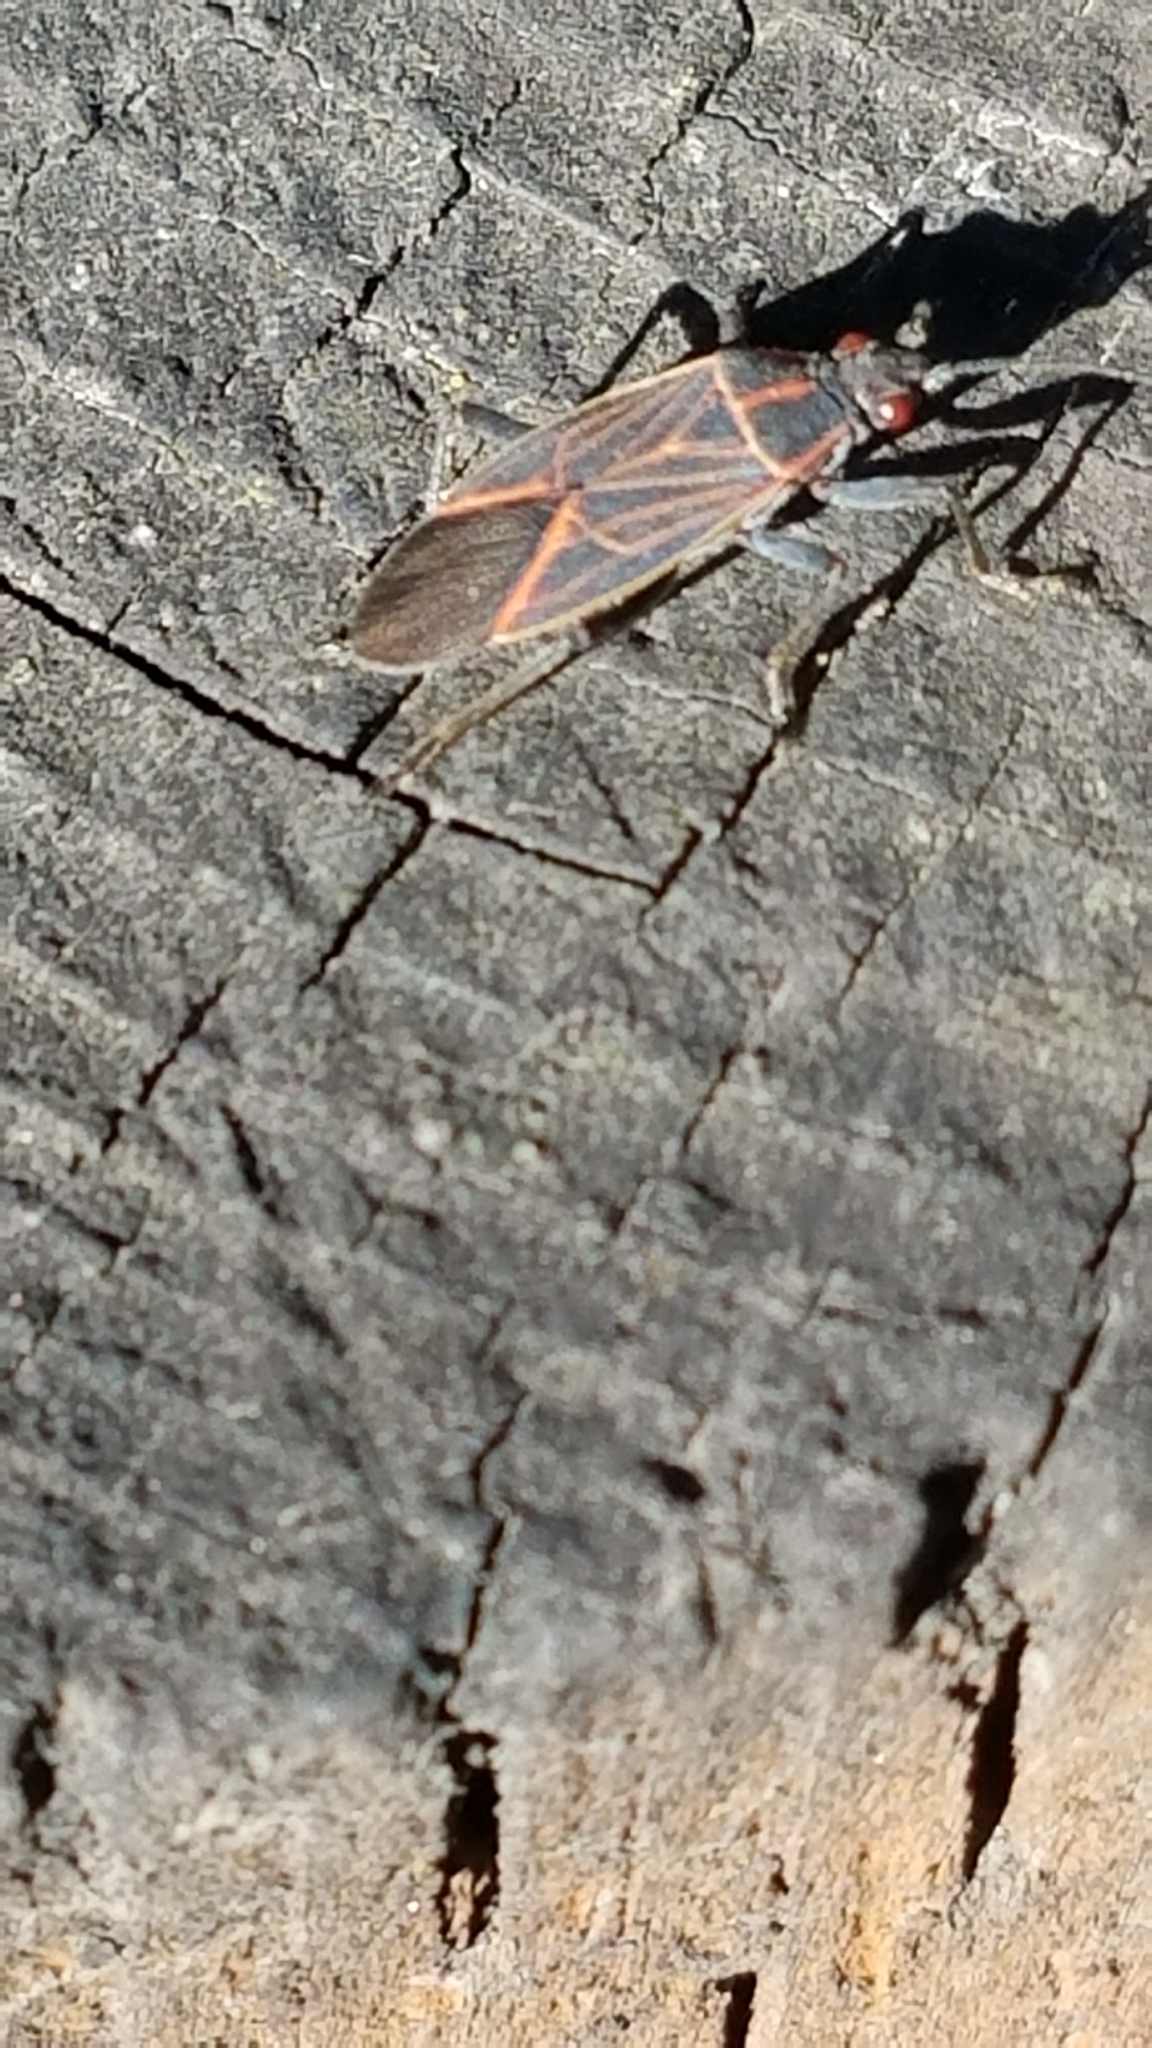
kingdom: Animalia
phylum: Arthropoda
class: Insecta
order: Hemiptera
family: Rhopalidae
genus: Boisea
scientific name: Boisea rubrolineata
